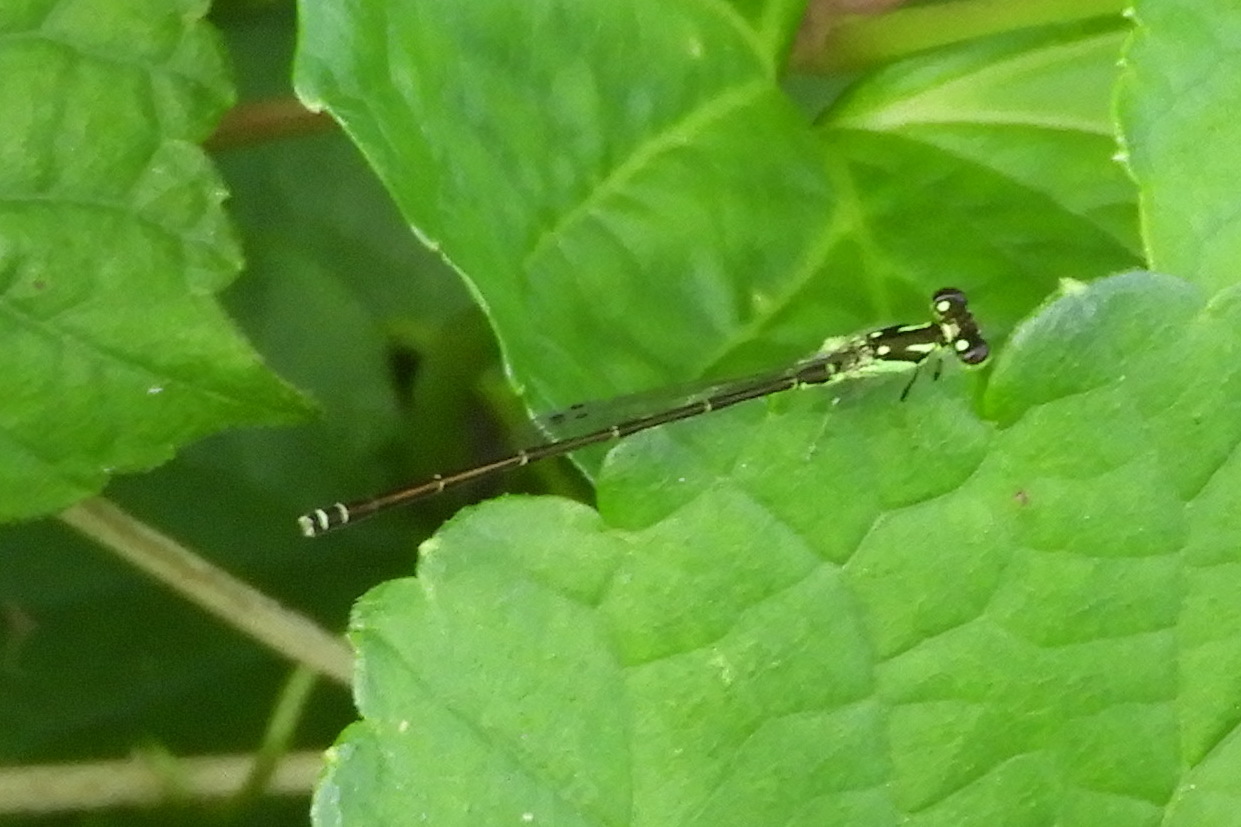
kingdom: Animalia
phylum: Arthropoda
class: Insecta
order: Odonata
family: Coenagrionidae
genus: Ischnura
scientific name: Ischnura posita
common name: Fragile forktail
